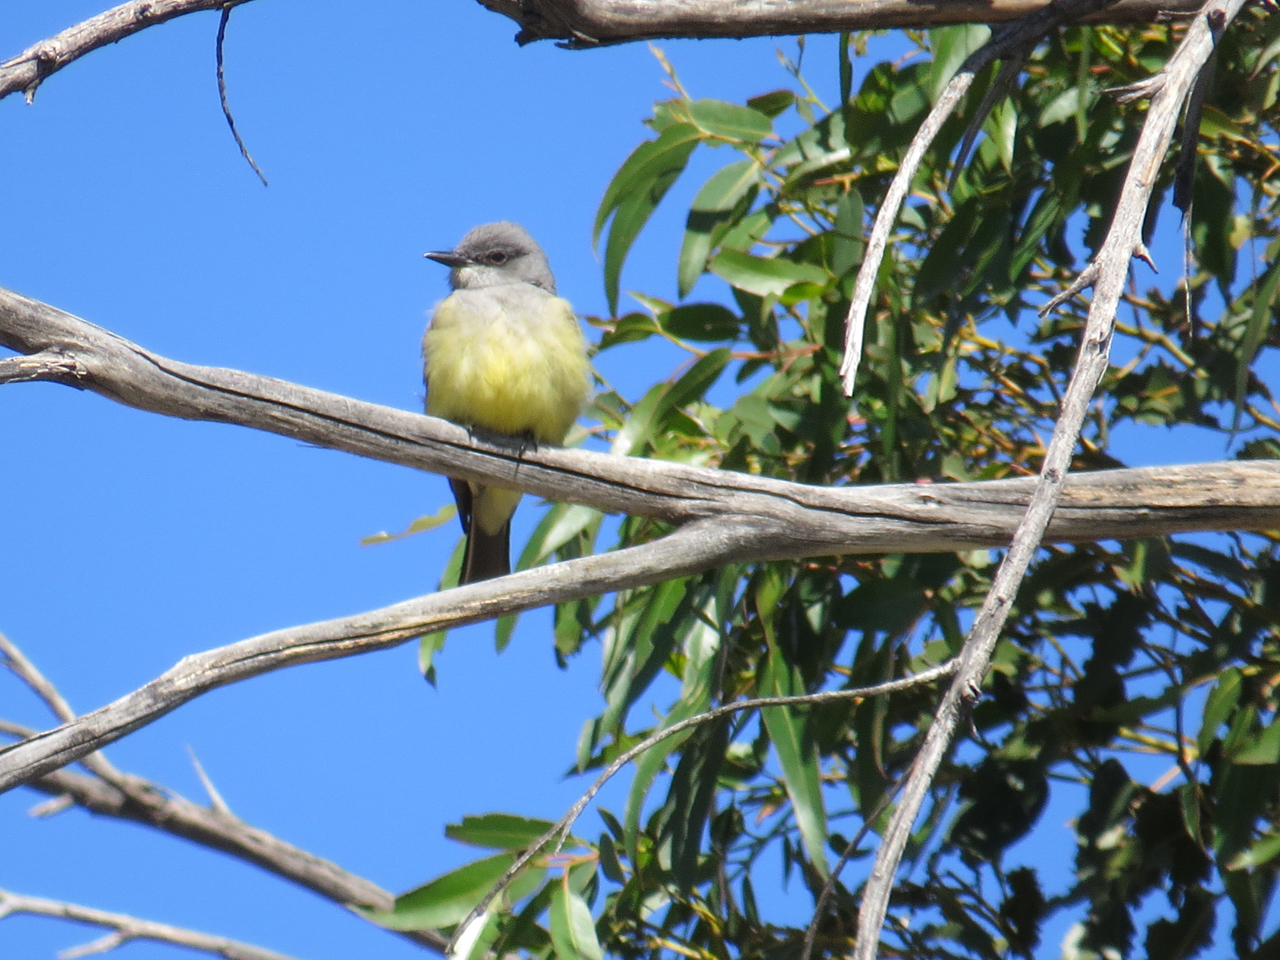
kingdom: Animalia
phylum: Chordata
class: Aves
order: Passeriformes
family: Tyrannidae
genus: Tyrannus
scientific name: Tyrannus vociferans
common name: Cassin's kingbird
